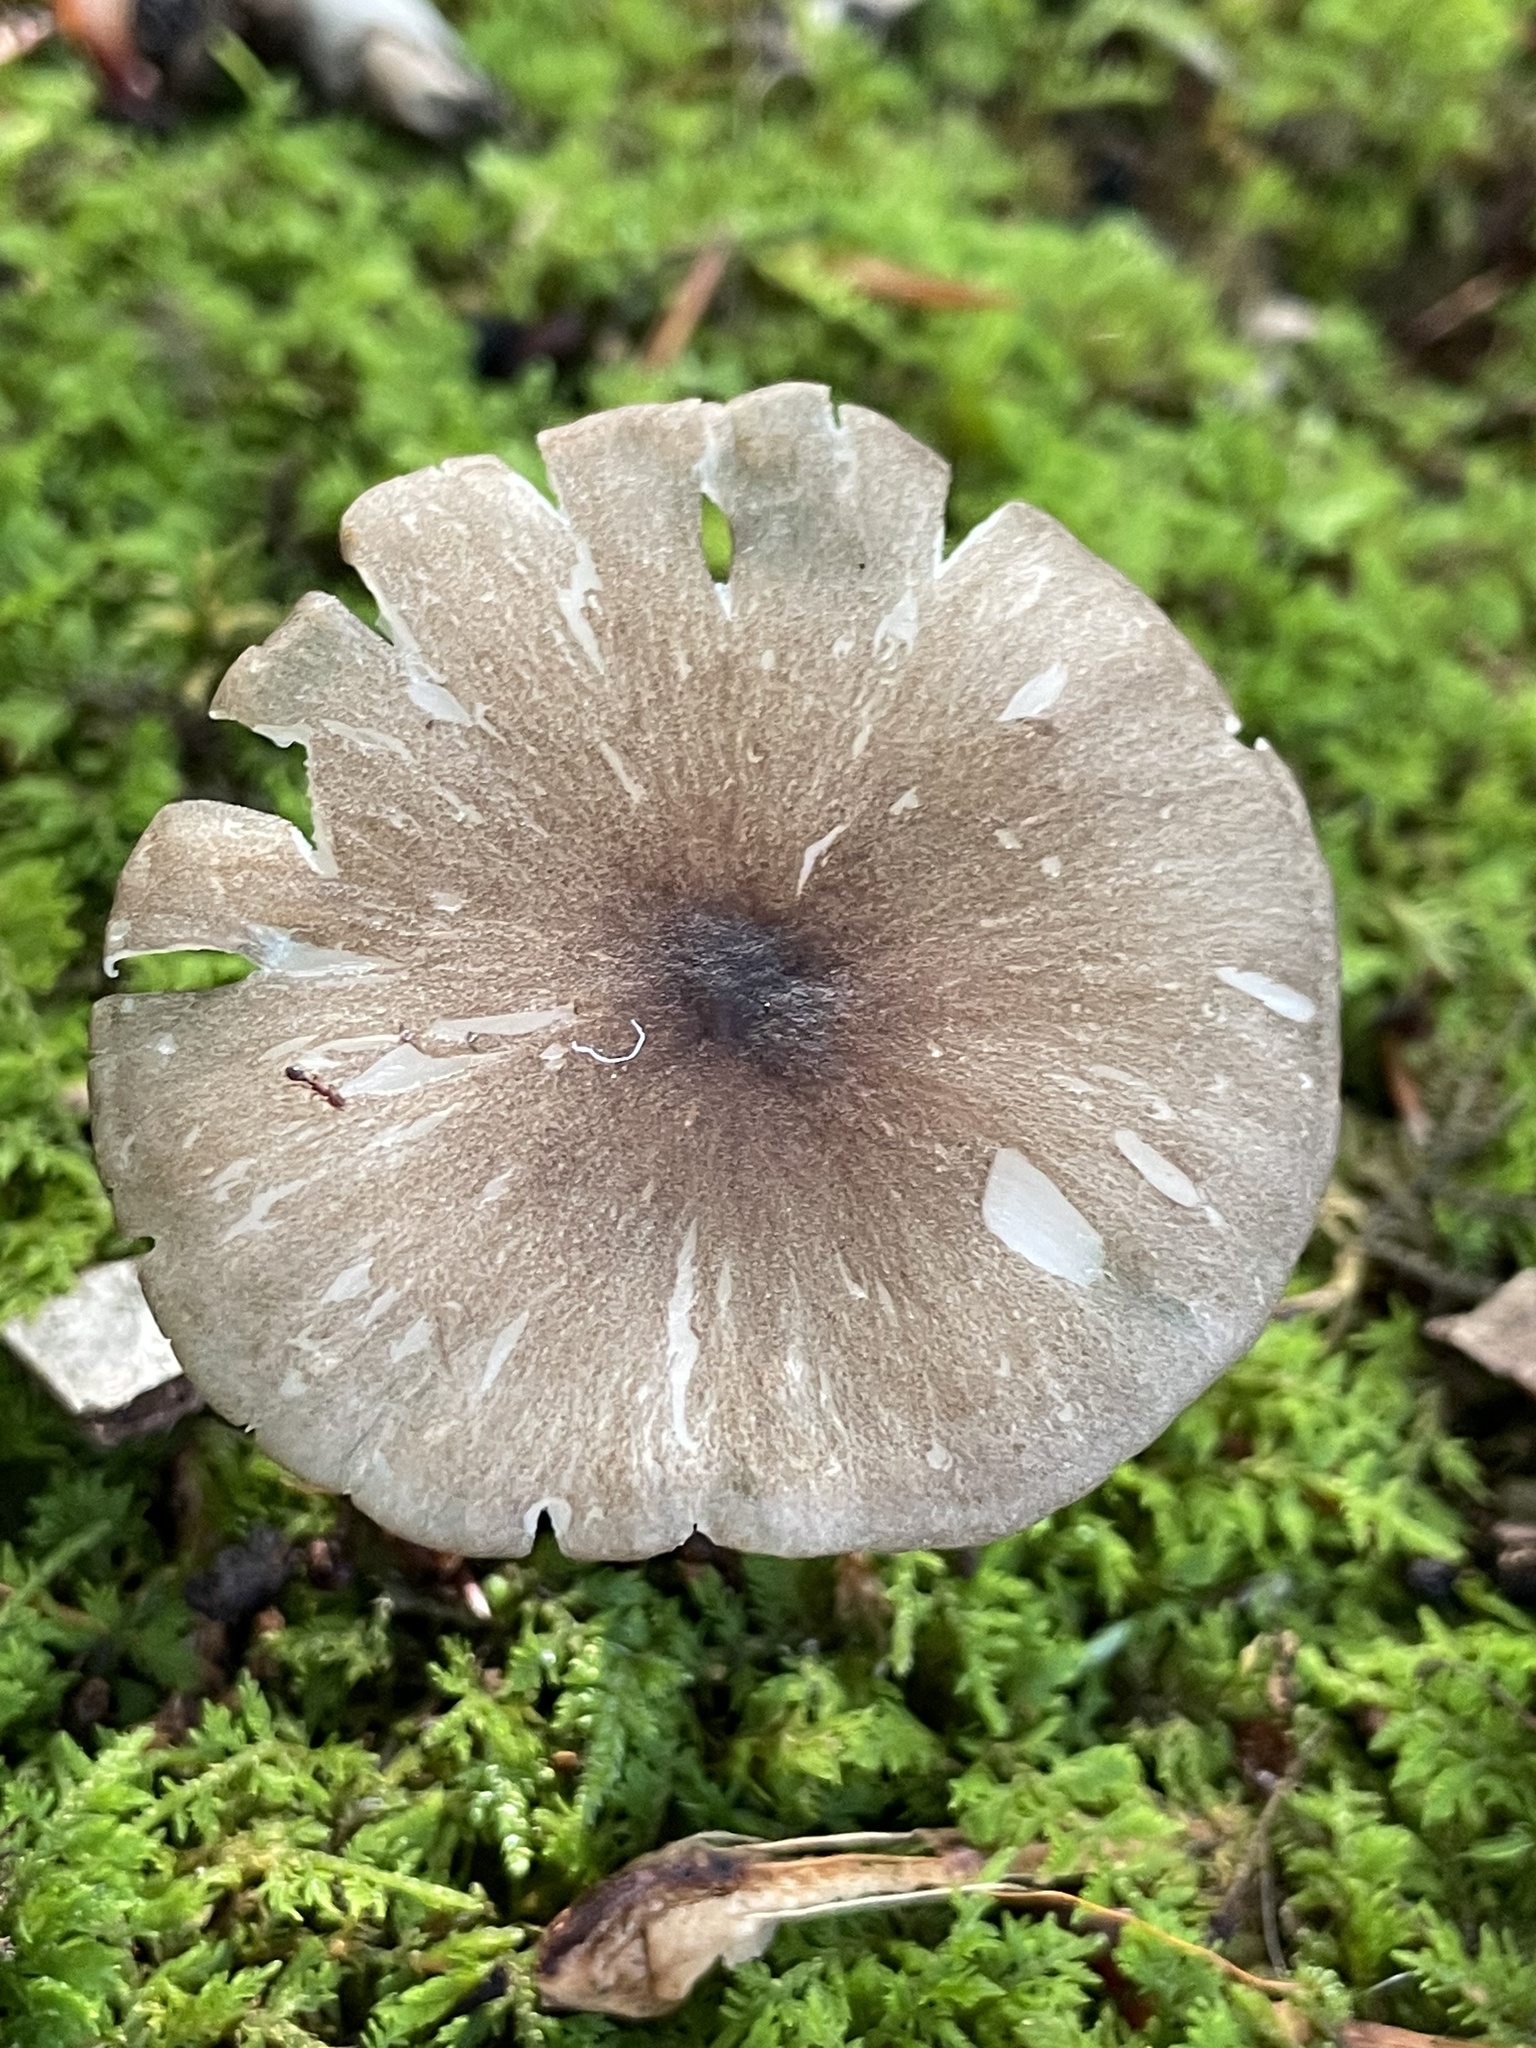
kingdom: Fungi
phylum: Basidiomycota
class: Agaricomycetes
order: Agaricales
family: Tricholomataceae
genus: Megacollybia
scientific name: Megacollybia rodmanii
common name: Eastern american platterful mushroom
